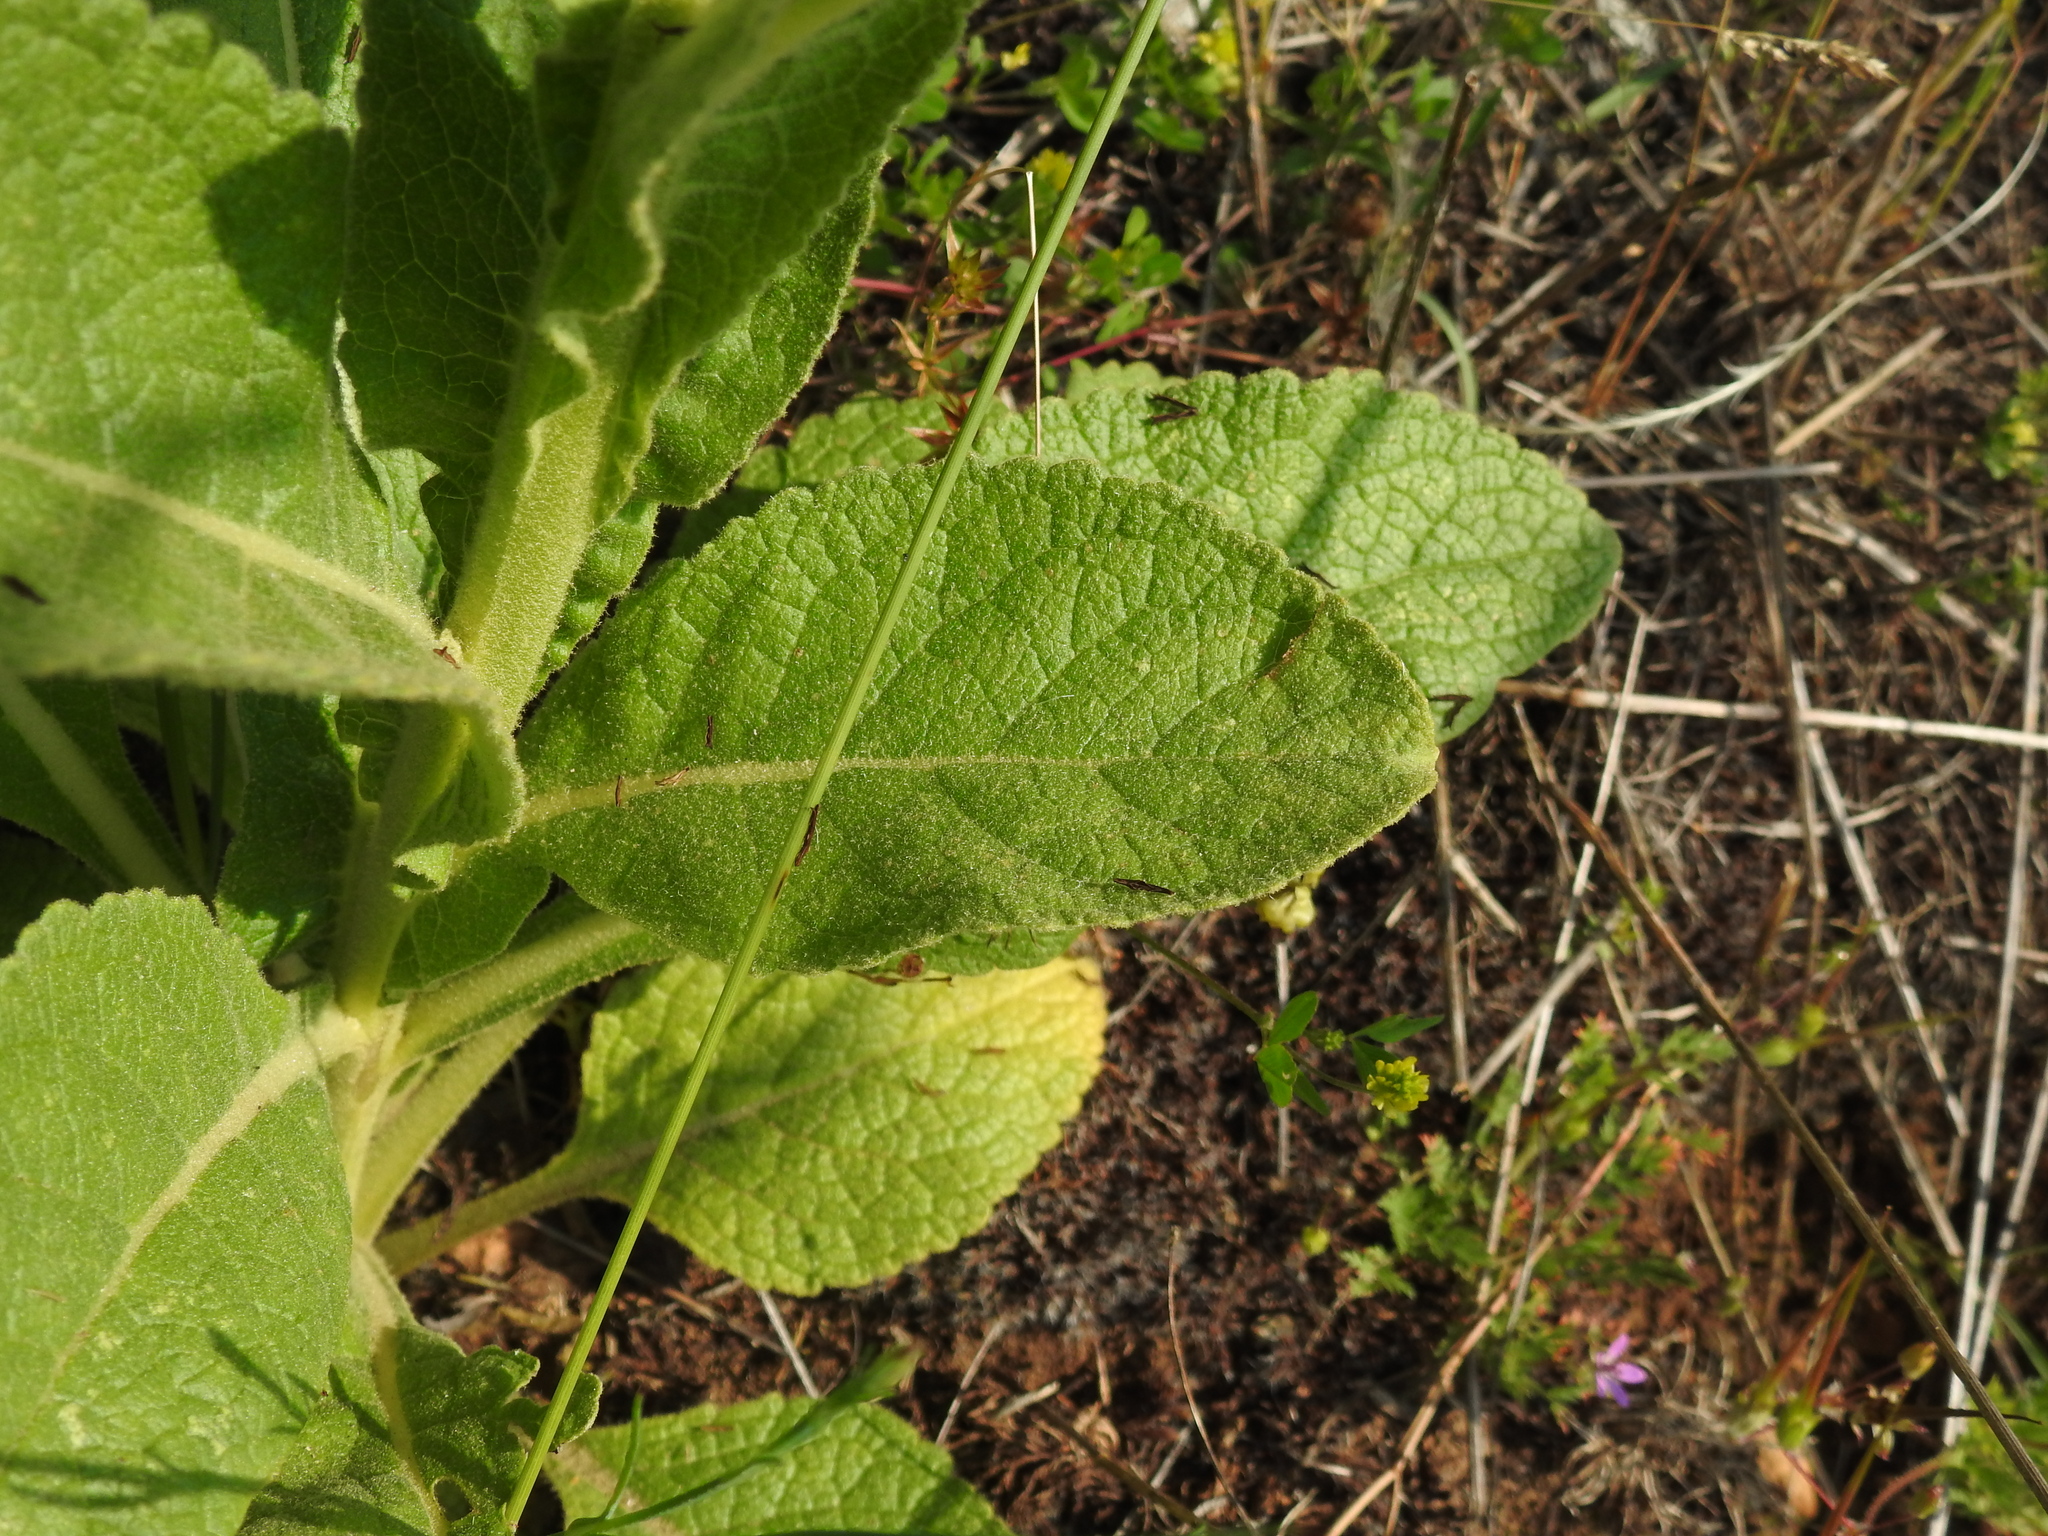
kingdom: Plantae
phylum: Tracheophyta
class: Magnoliopsida
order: Lamiales
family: Scrophulariaceae
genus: Verbascum
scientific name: Verbascum thapsus
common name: Common mullein
